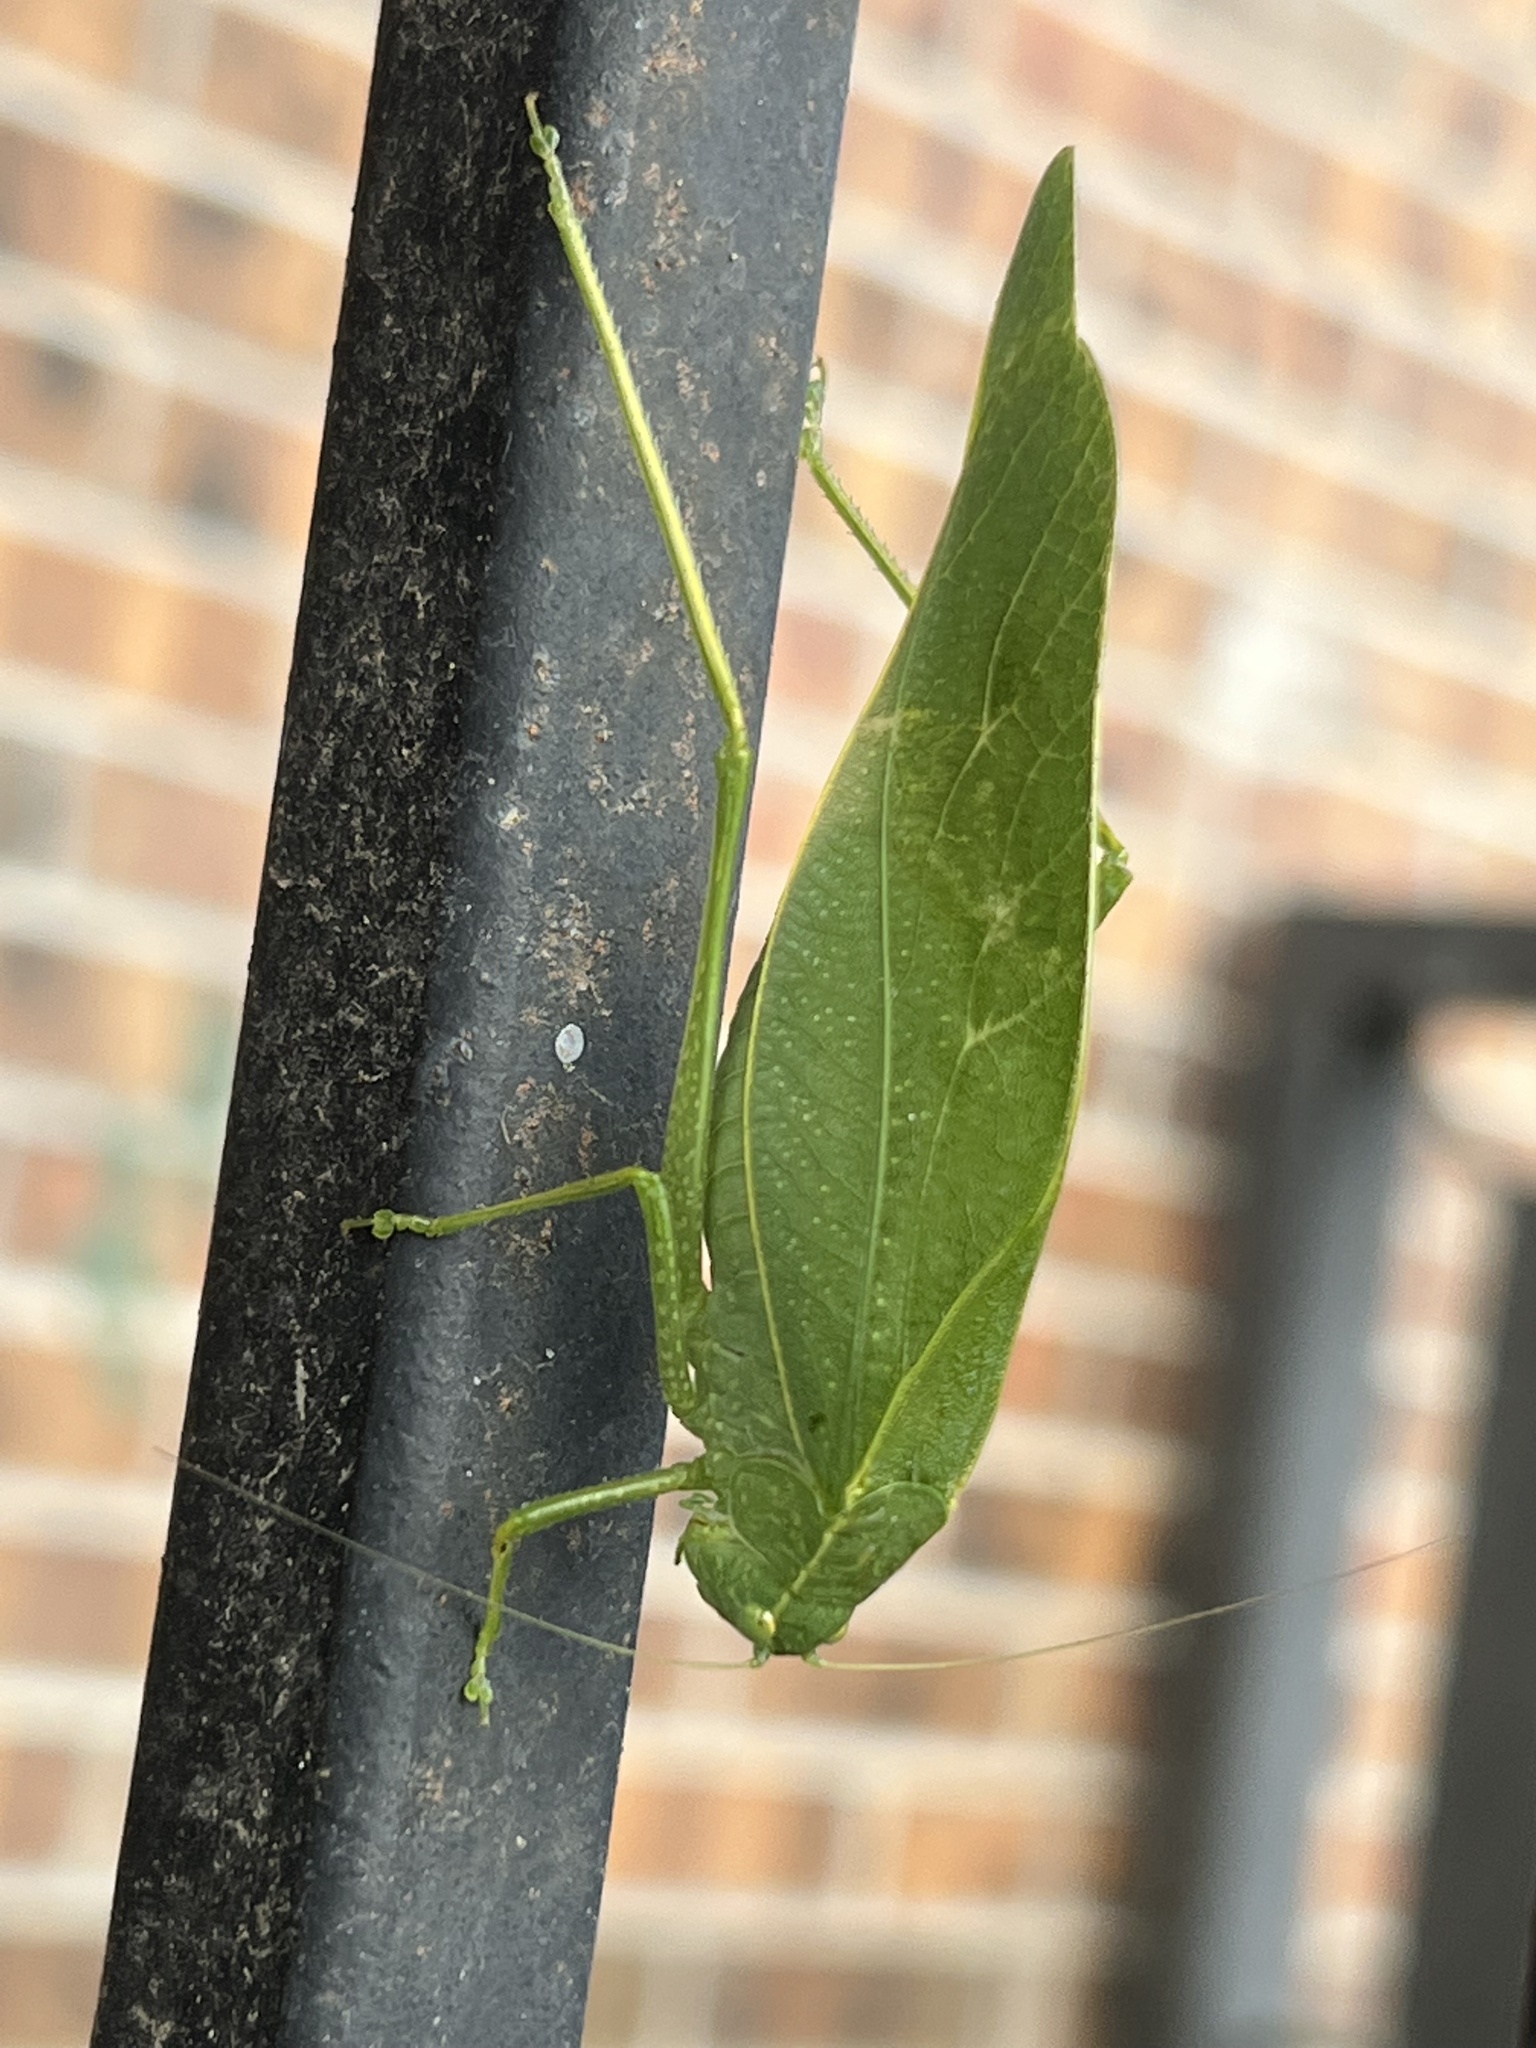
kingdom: Animalia
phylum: Arthropoda
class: Insecta
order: Orthoptera
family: Tettigoniidae
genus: Microcentrum
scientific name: Microcentrum rhombifolium
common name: Broad-winged katydid
